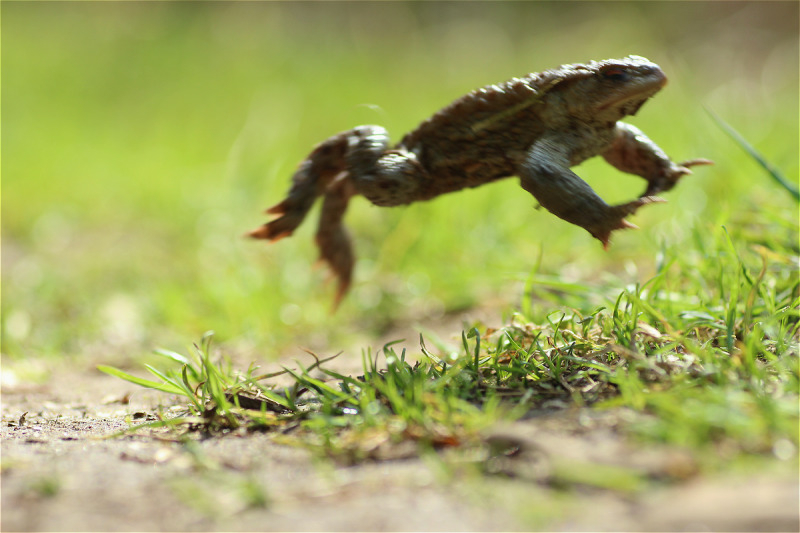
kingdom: Animalia
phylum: Chordata
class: Amphibia
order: Anura
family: Bufonidae
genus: Bufo
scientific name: Bufo bufo
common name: Common toad
